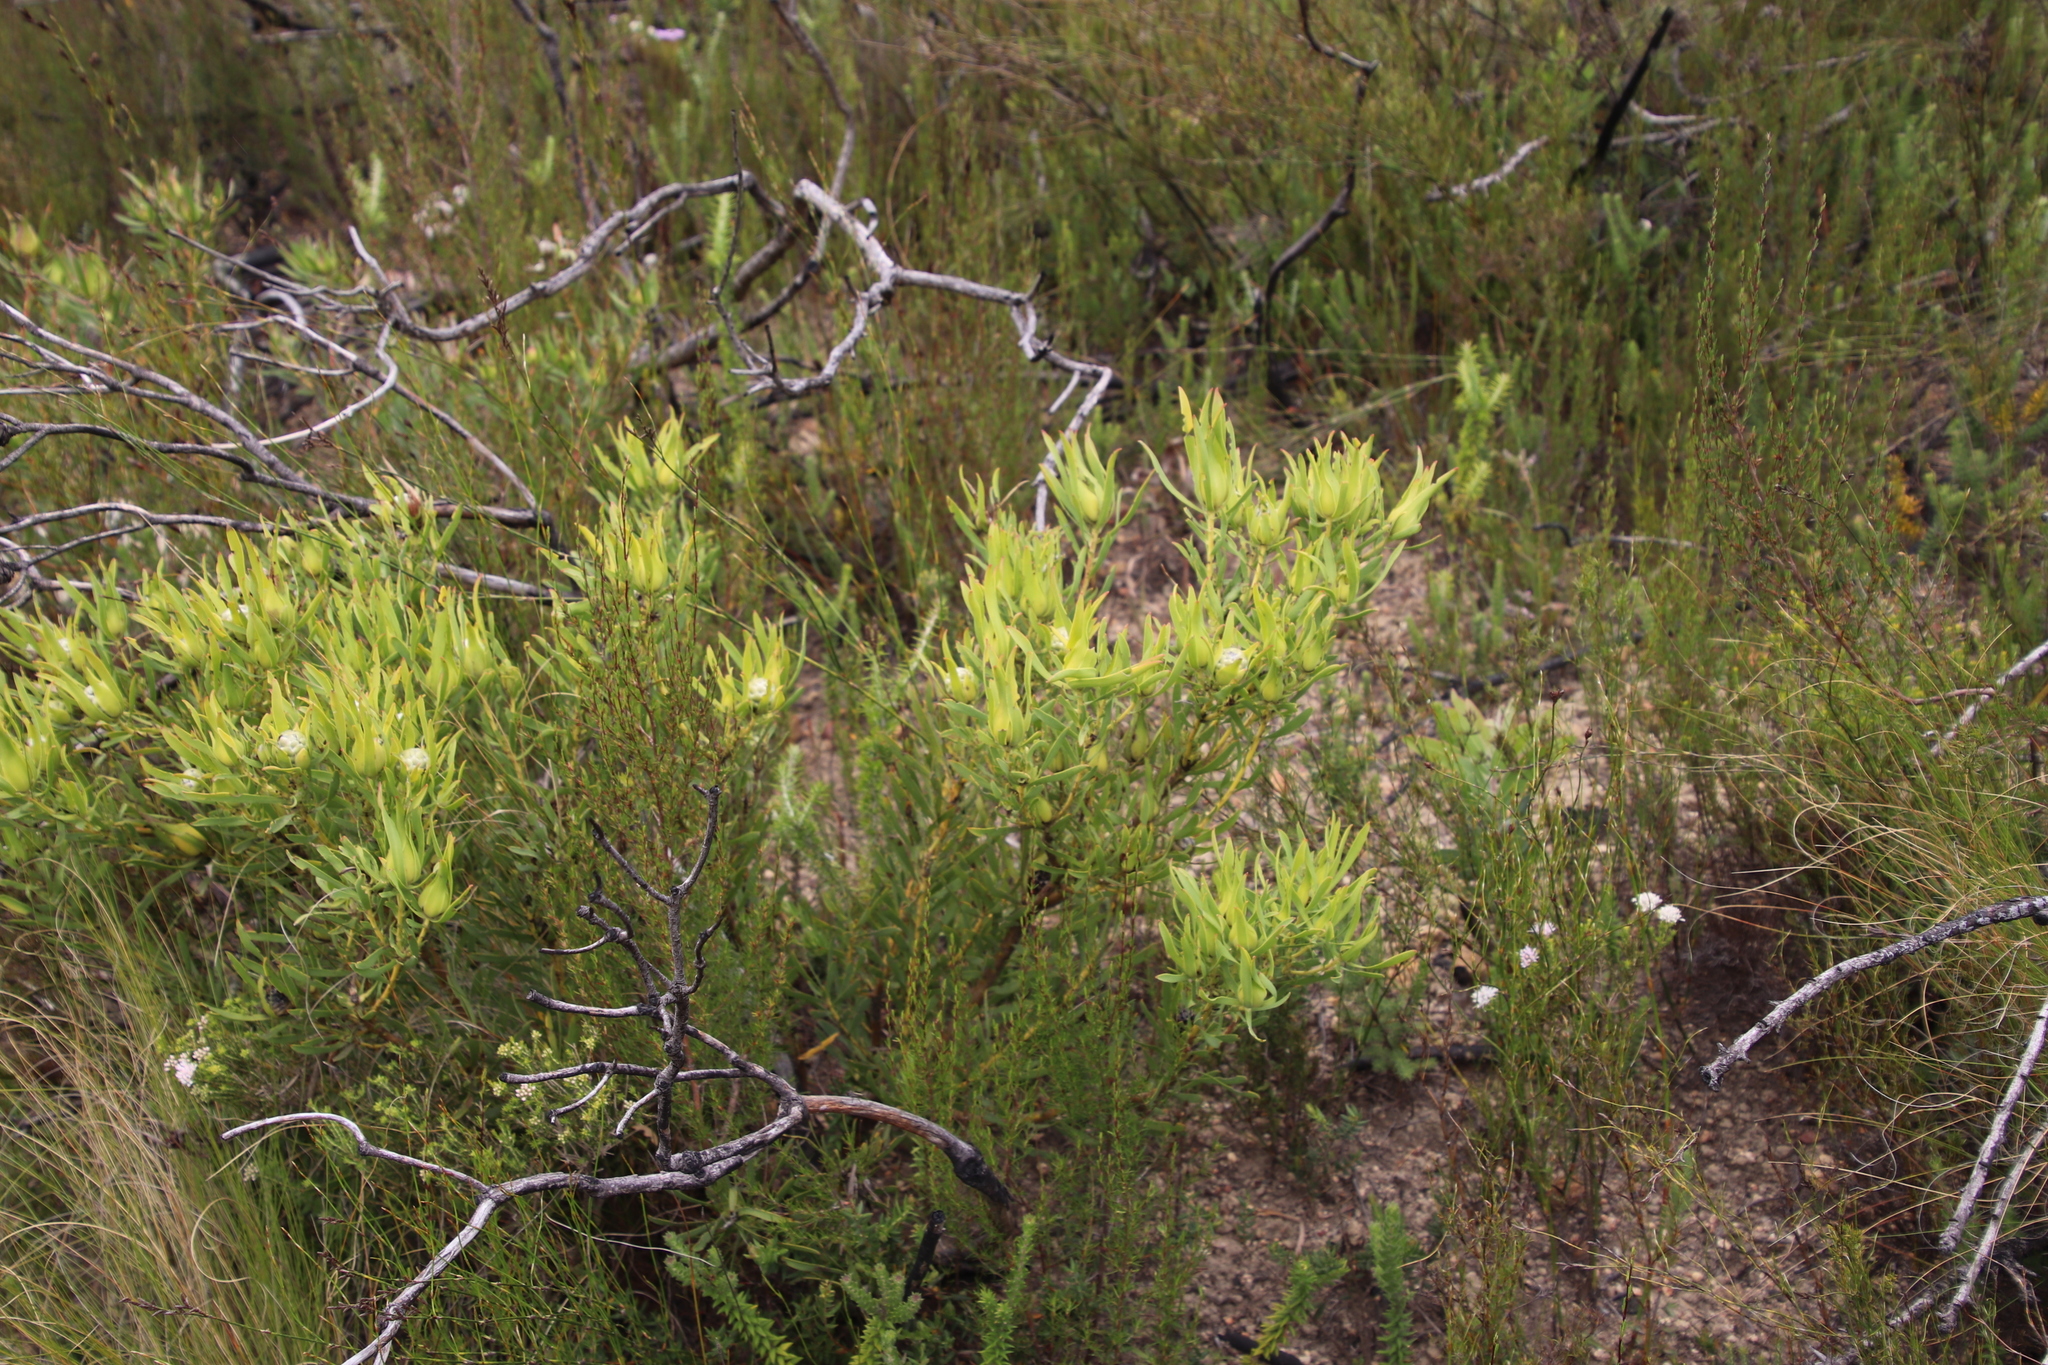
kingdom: Plantae
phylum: Tracheophyta
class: Magnoliopsida
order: Proteales
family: Proteaceae
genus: Leucadendron
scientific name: Leucadendron salignum
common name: Common sunshine conebush
